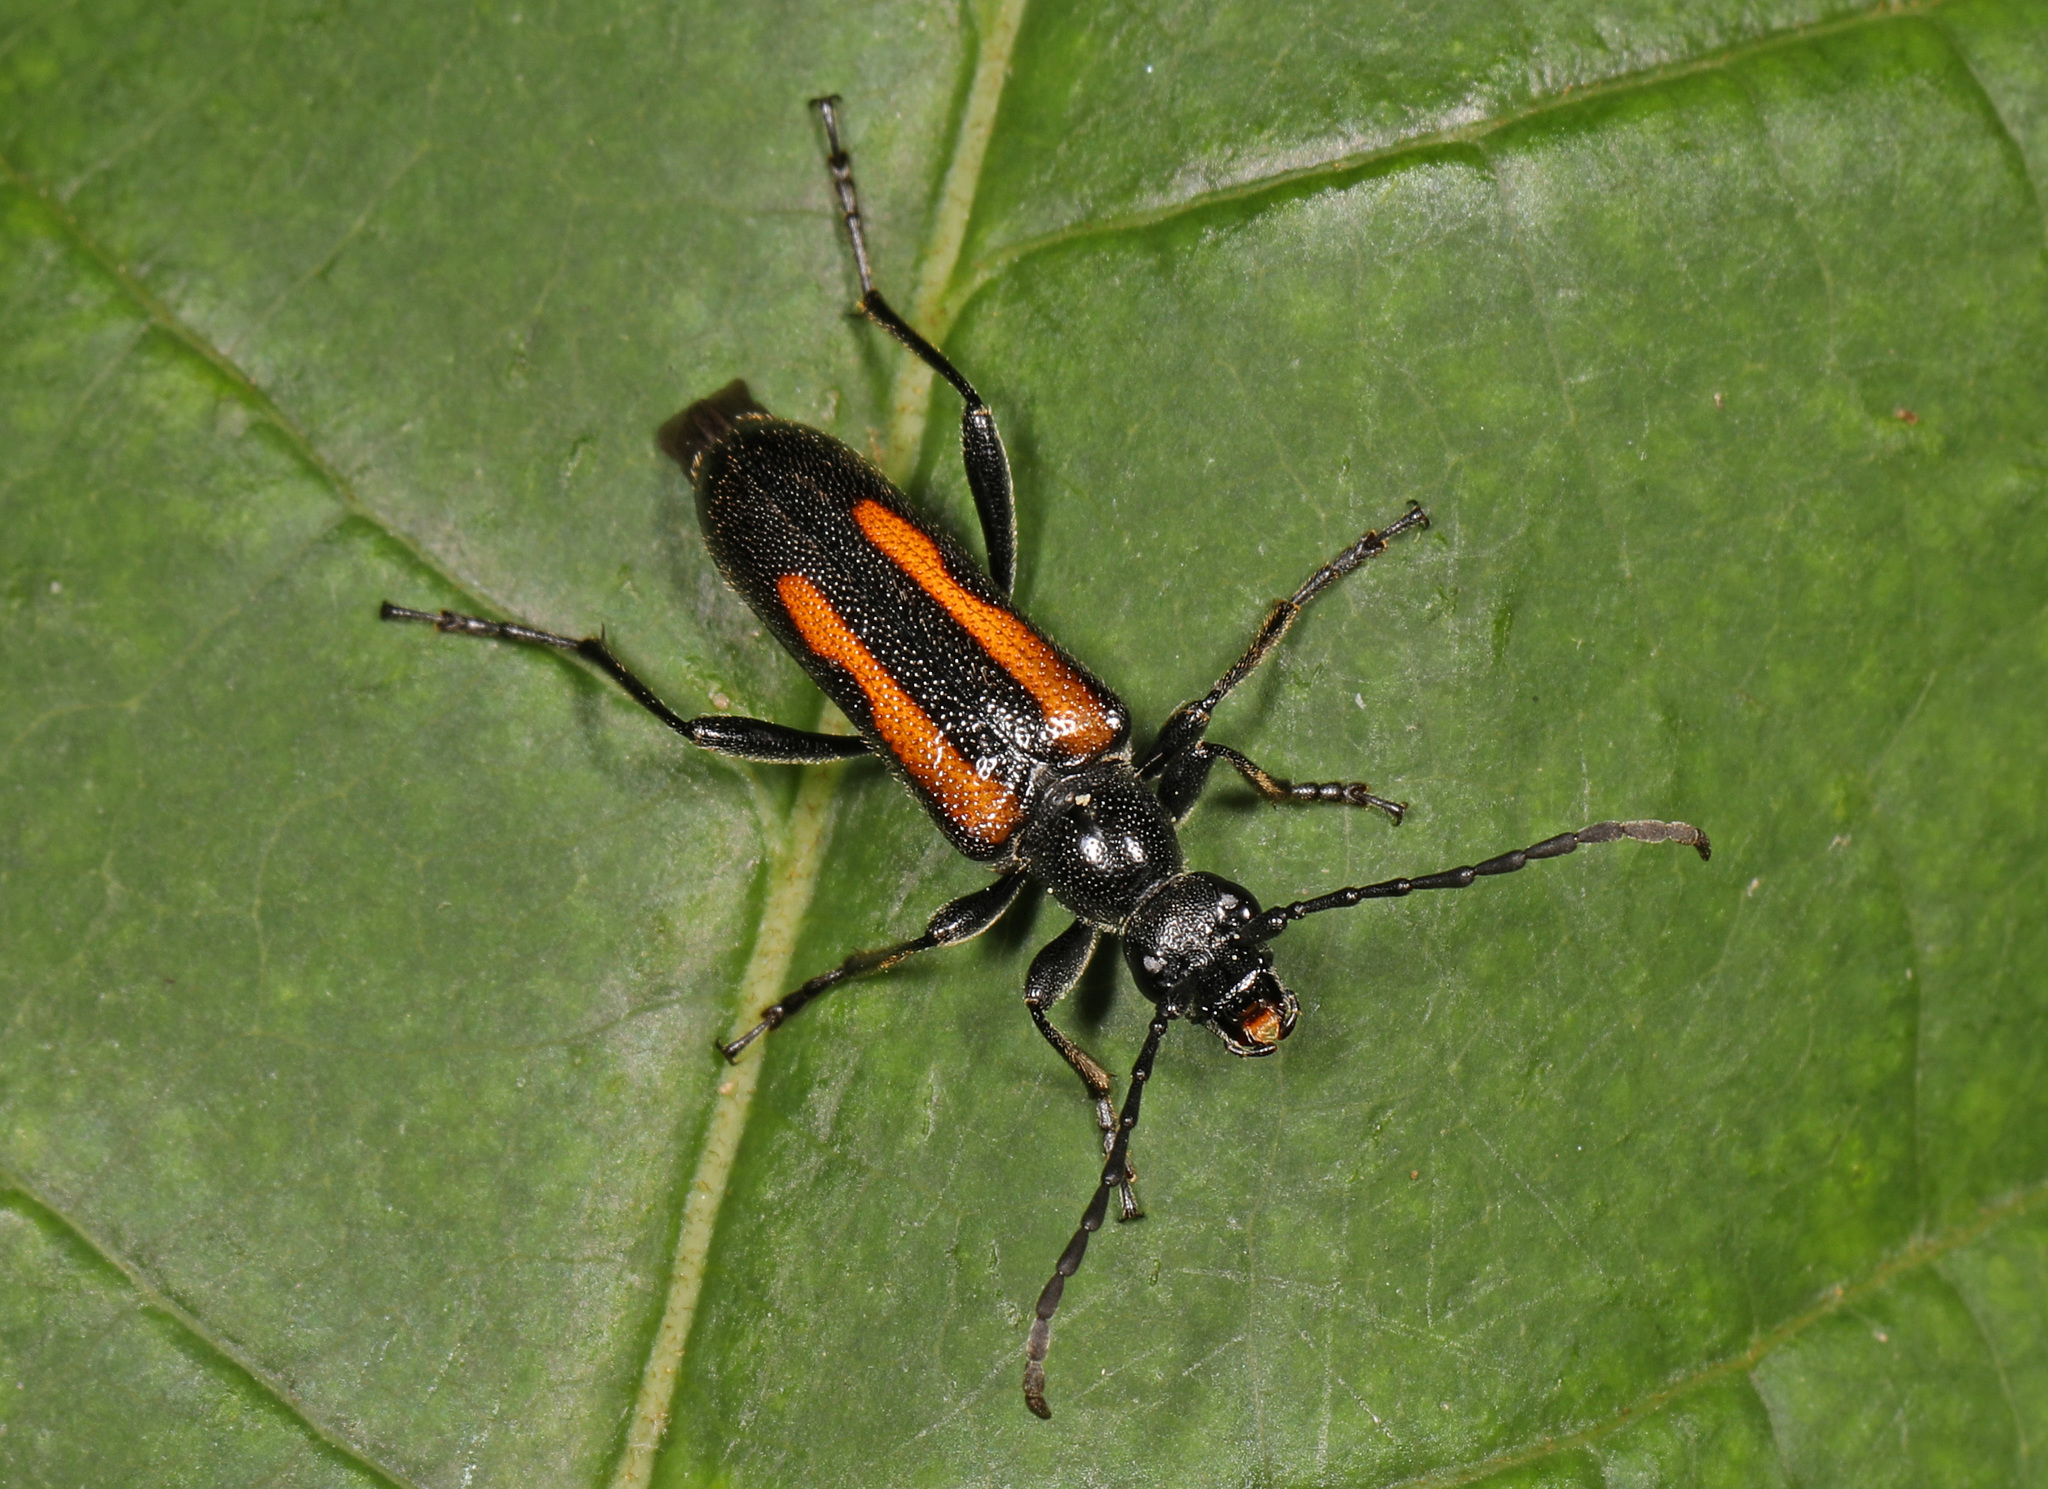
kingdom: Animalia
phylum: Arthropoda
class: Insecta
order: Coleoptera
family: Cerambycidae
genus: Strangalepta
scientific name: Strangalepta abbreviata
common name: Strangalepta flower longhorn beetle
